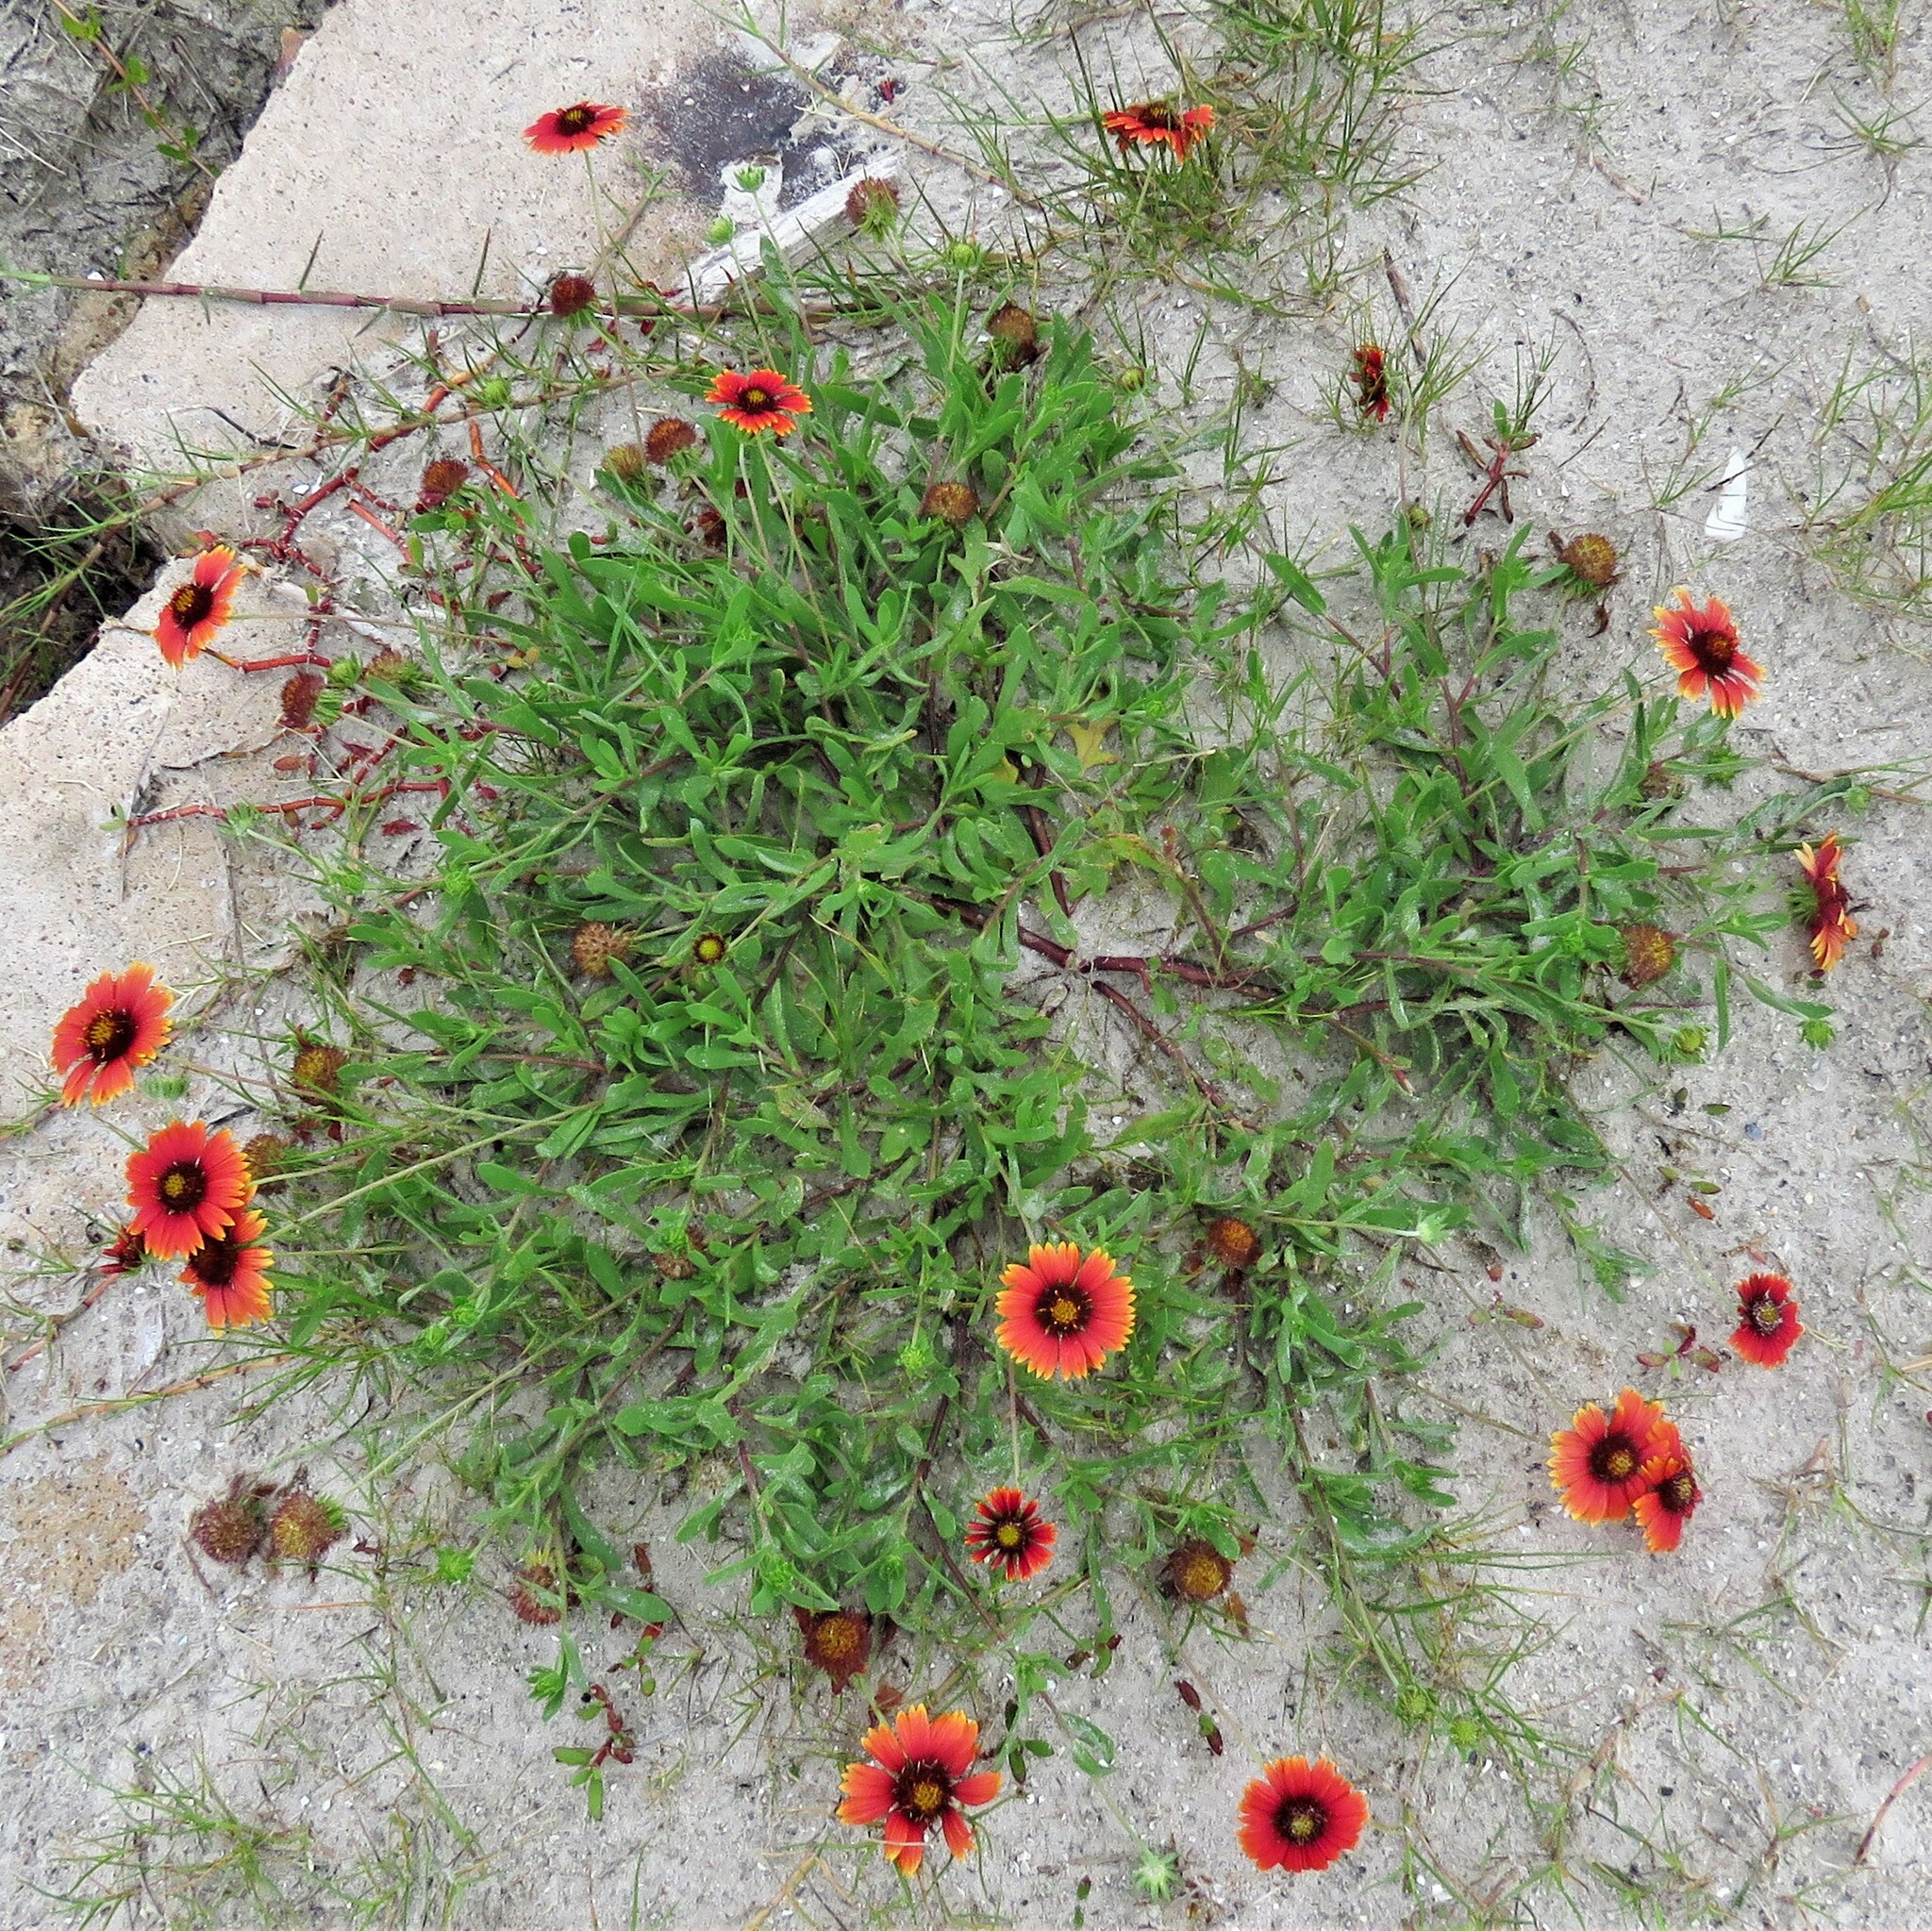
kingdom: Plantae
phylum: Tracheophyta
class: Magnoliopsida
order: Asterales
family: Asteraceae
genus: Gaillardia
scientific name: Gaillardia pulchella
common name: Firewheel
